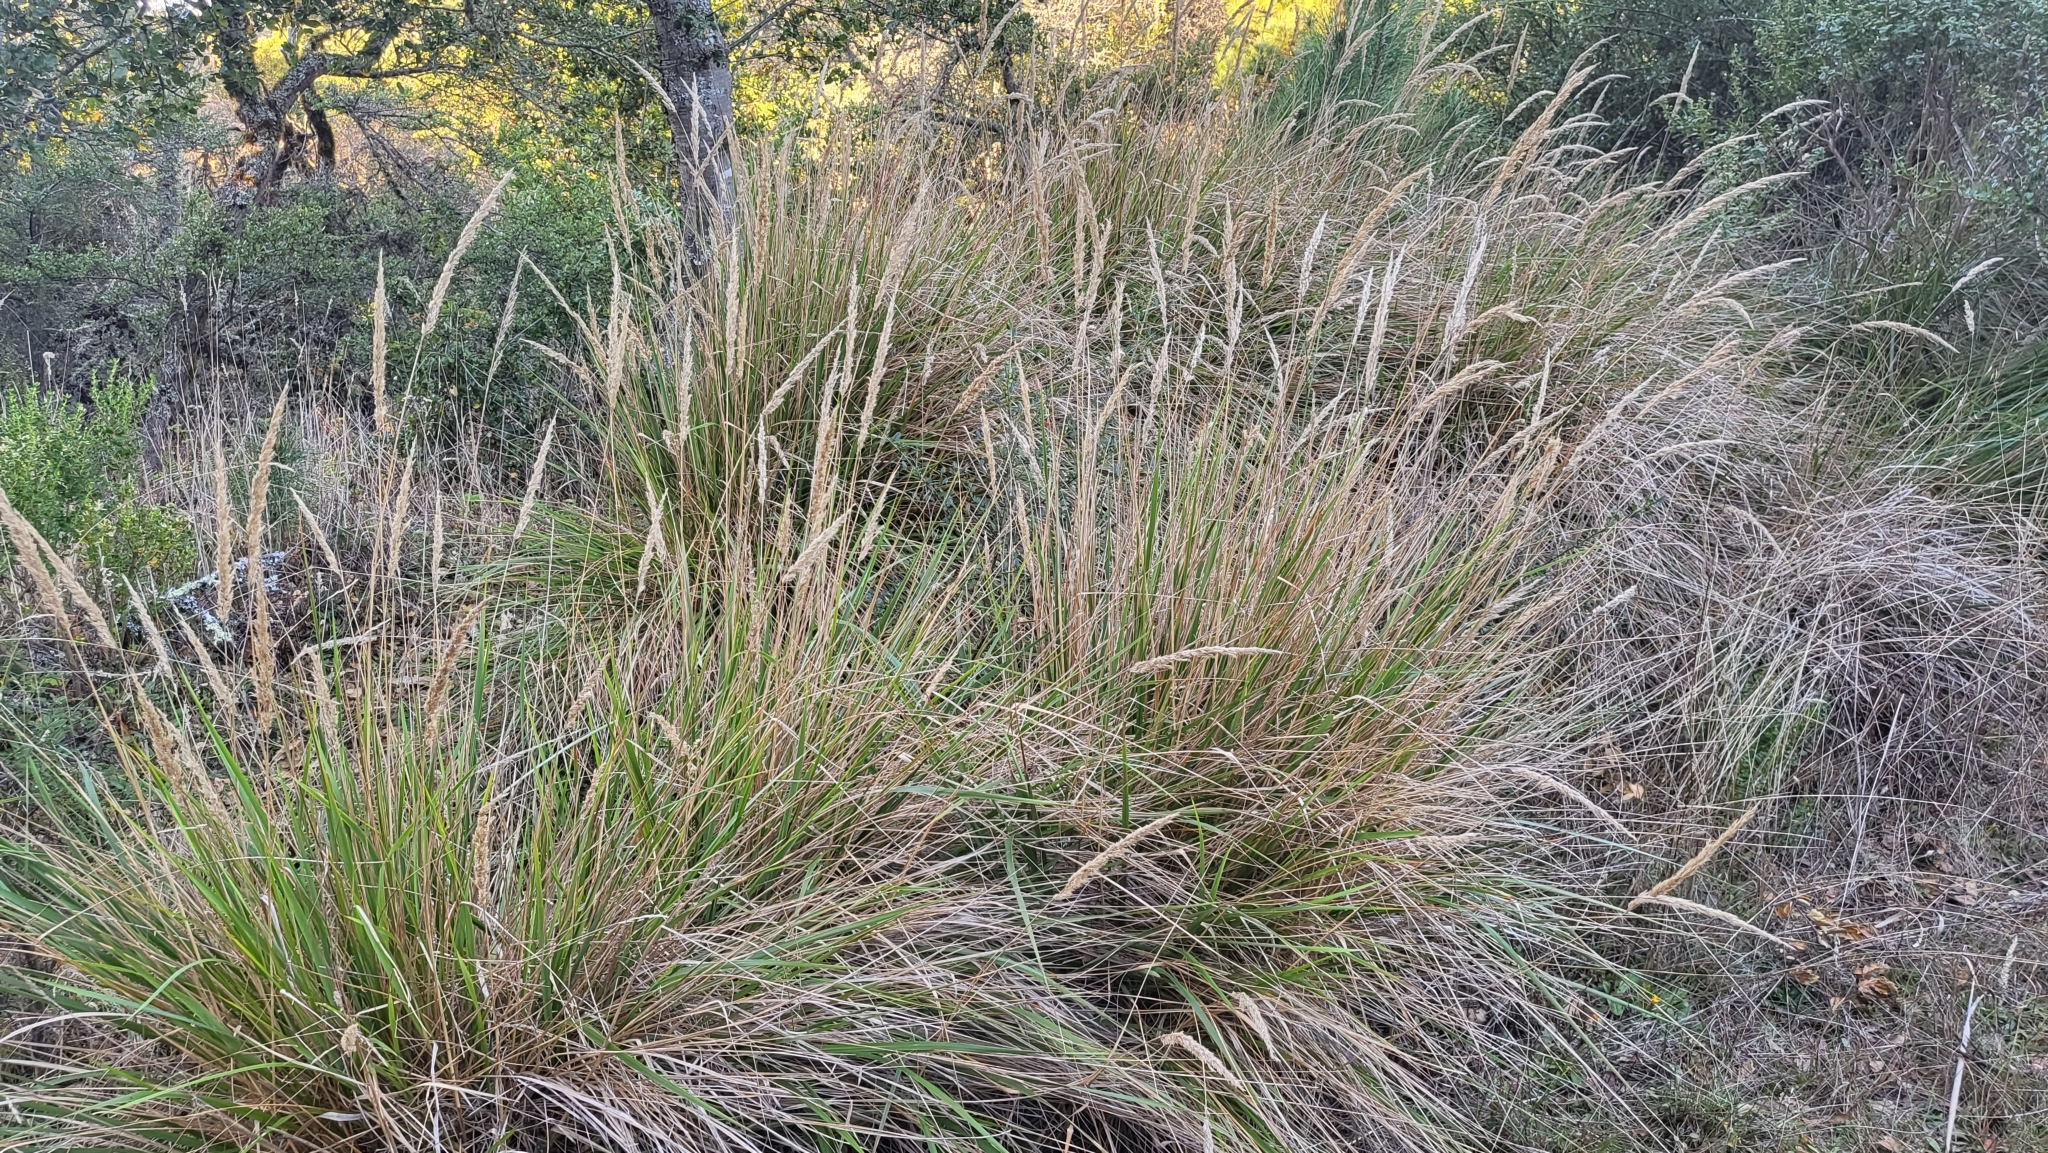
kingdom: Plantae
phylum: Tracheophyta
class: Liliopsida
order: Poales
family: Poaceae
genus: Calamagrostis
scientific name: Calamagrostis nutkaensis
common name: Pacific reed grass
